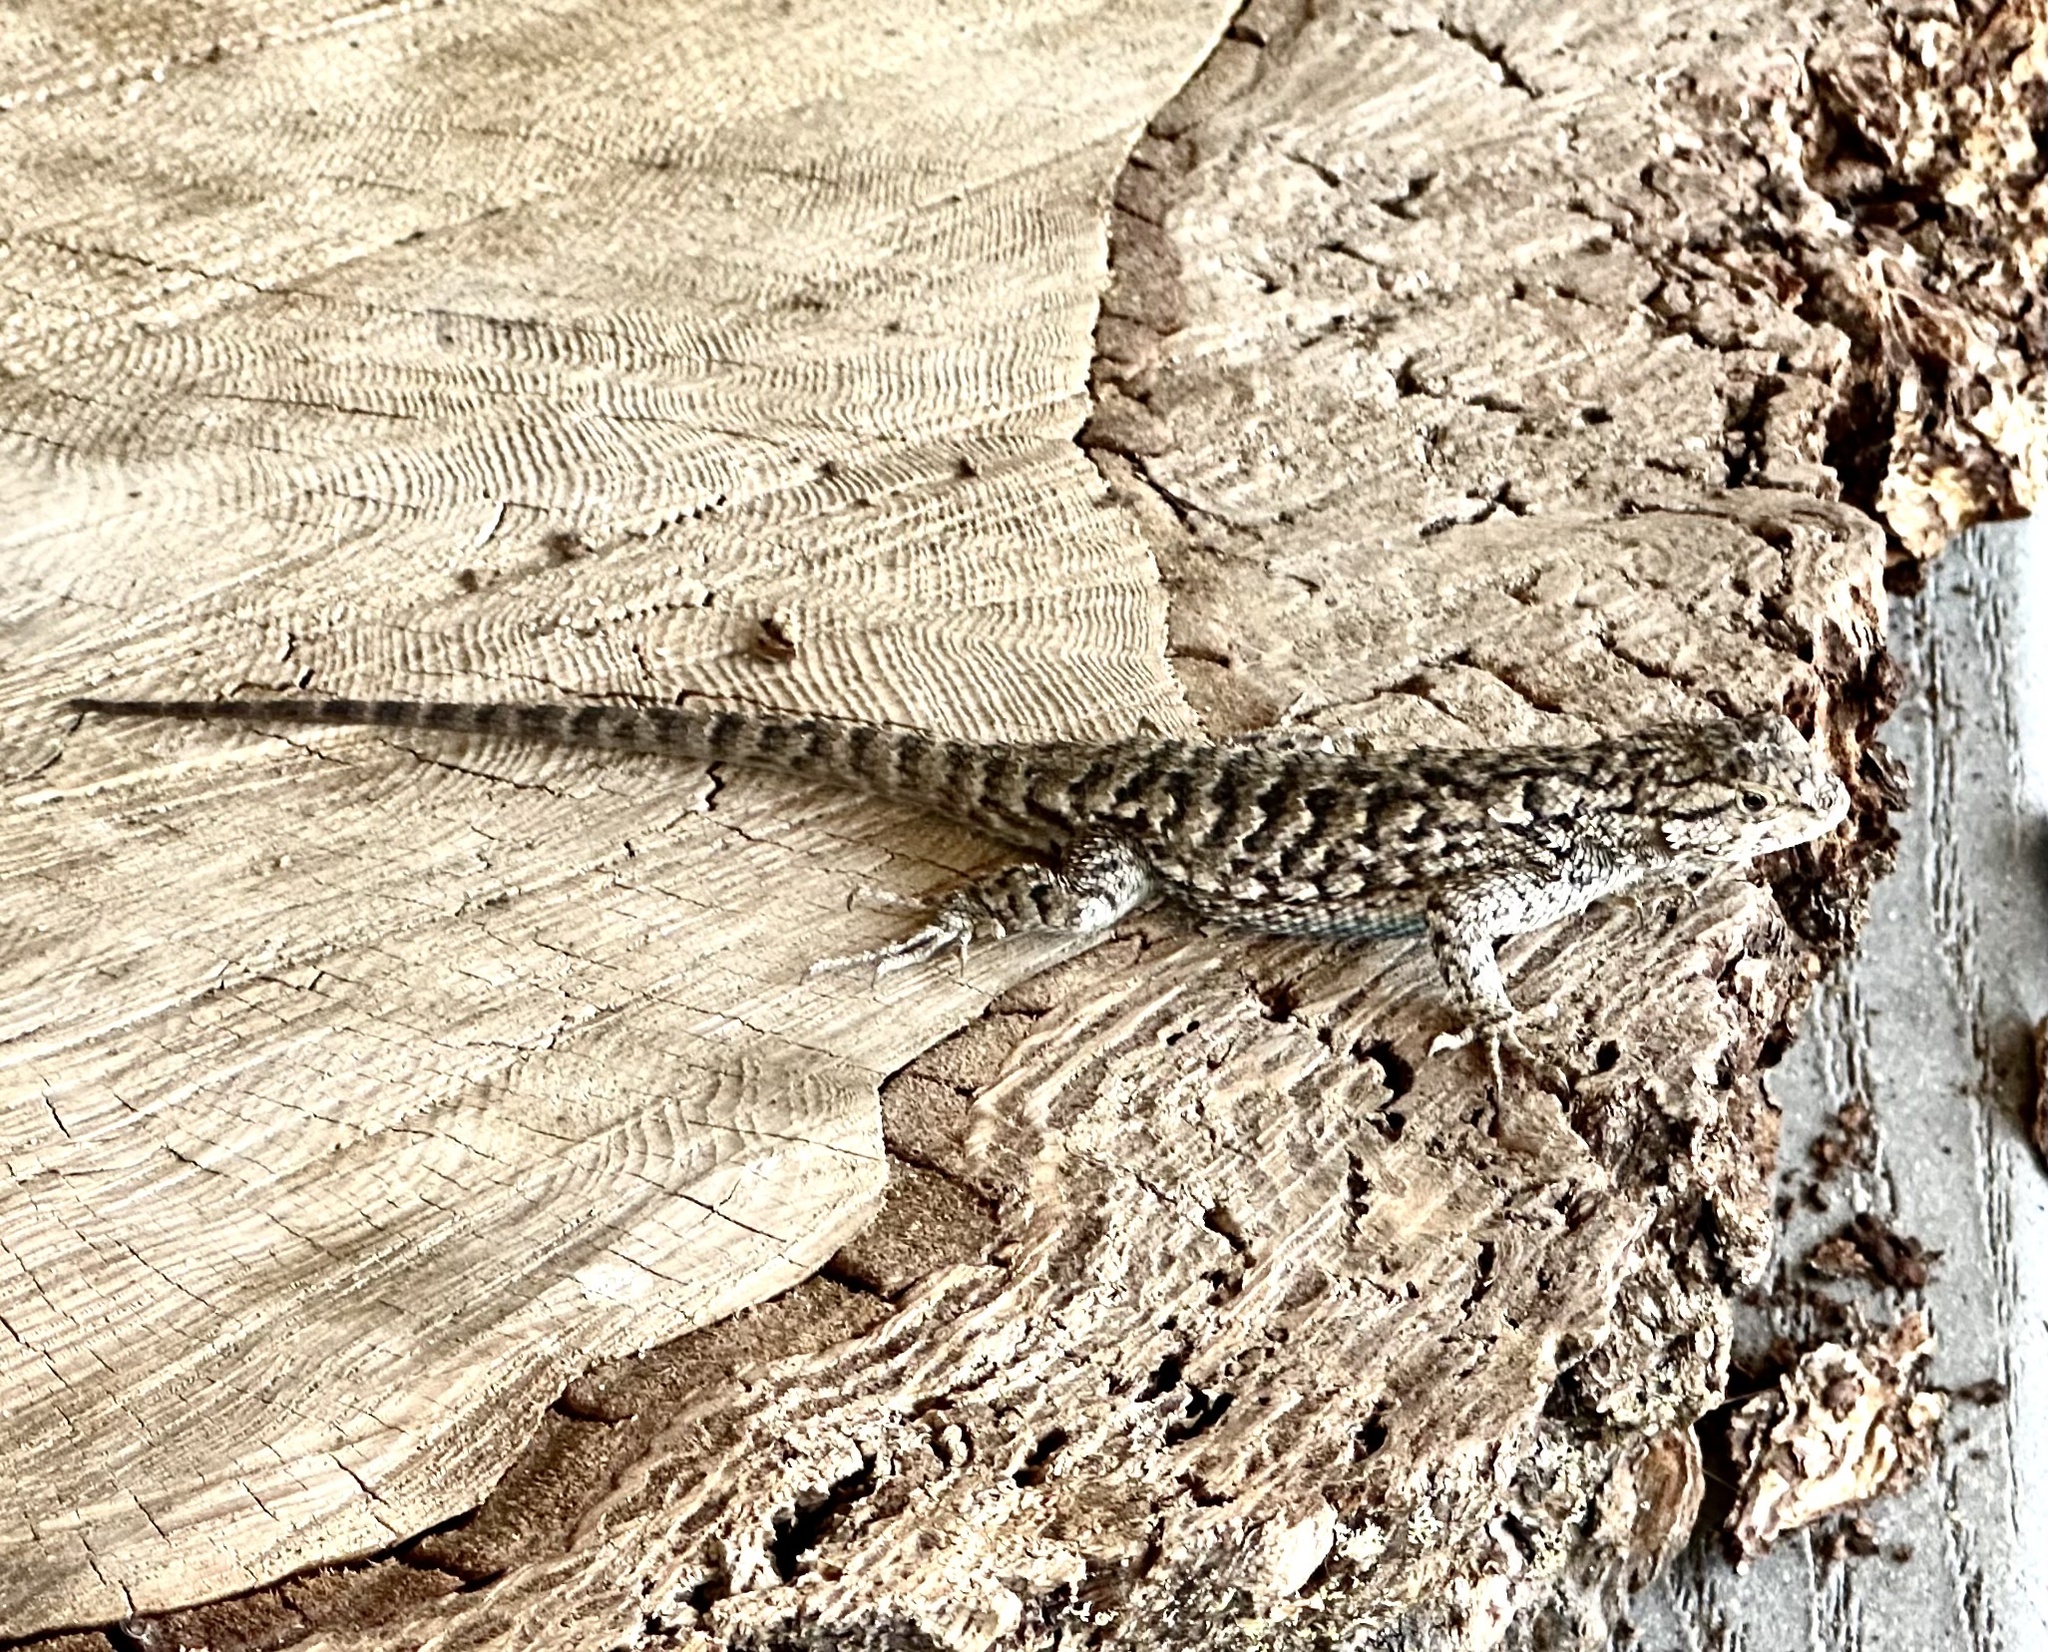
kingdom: Animalia
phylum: Chordata
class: Squamata
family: Phrynosomatidae
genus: Sceloporus
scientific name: Sceloporus occidentalis
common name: Western fence lizard
